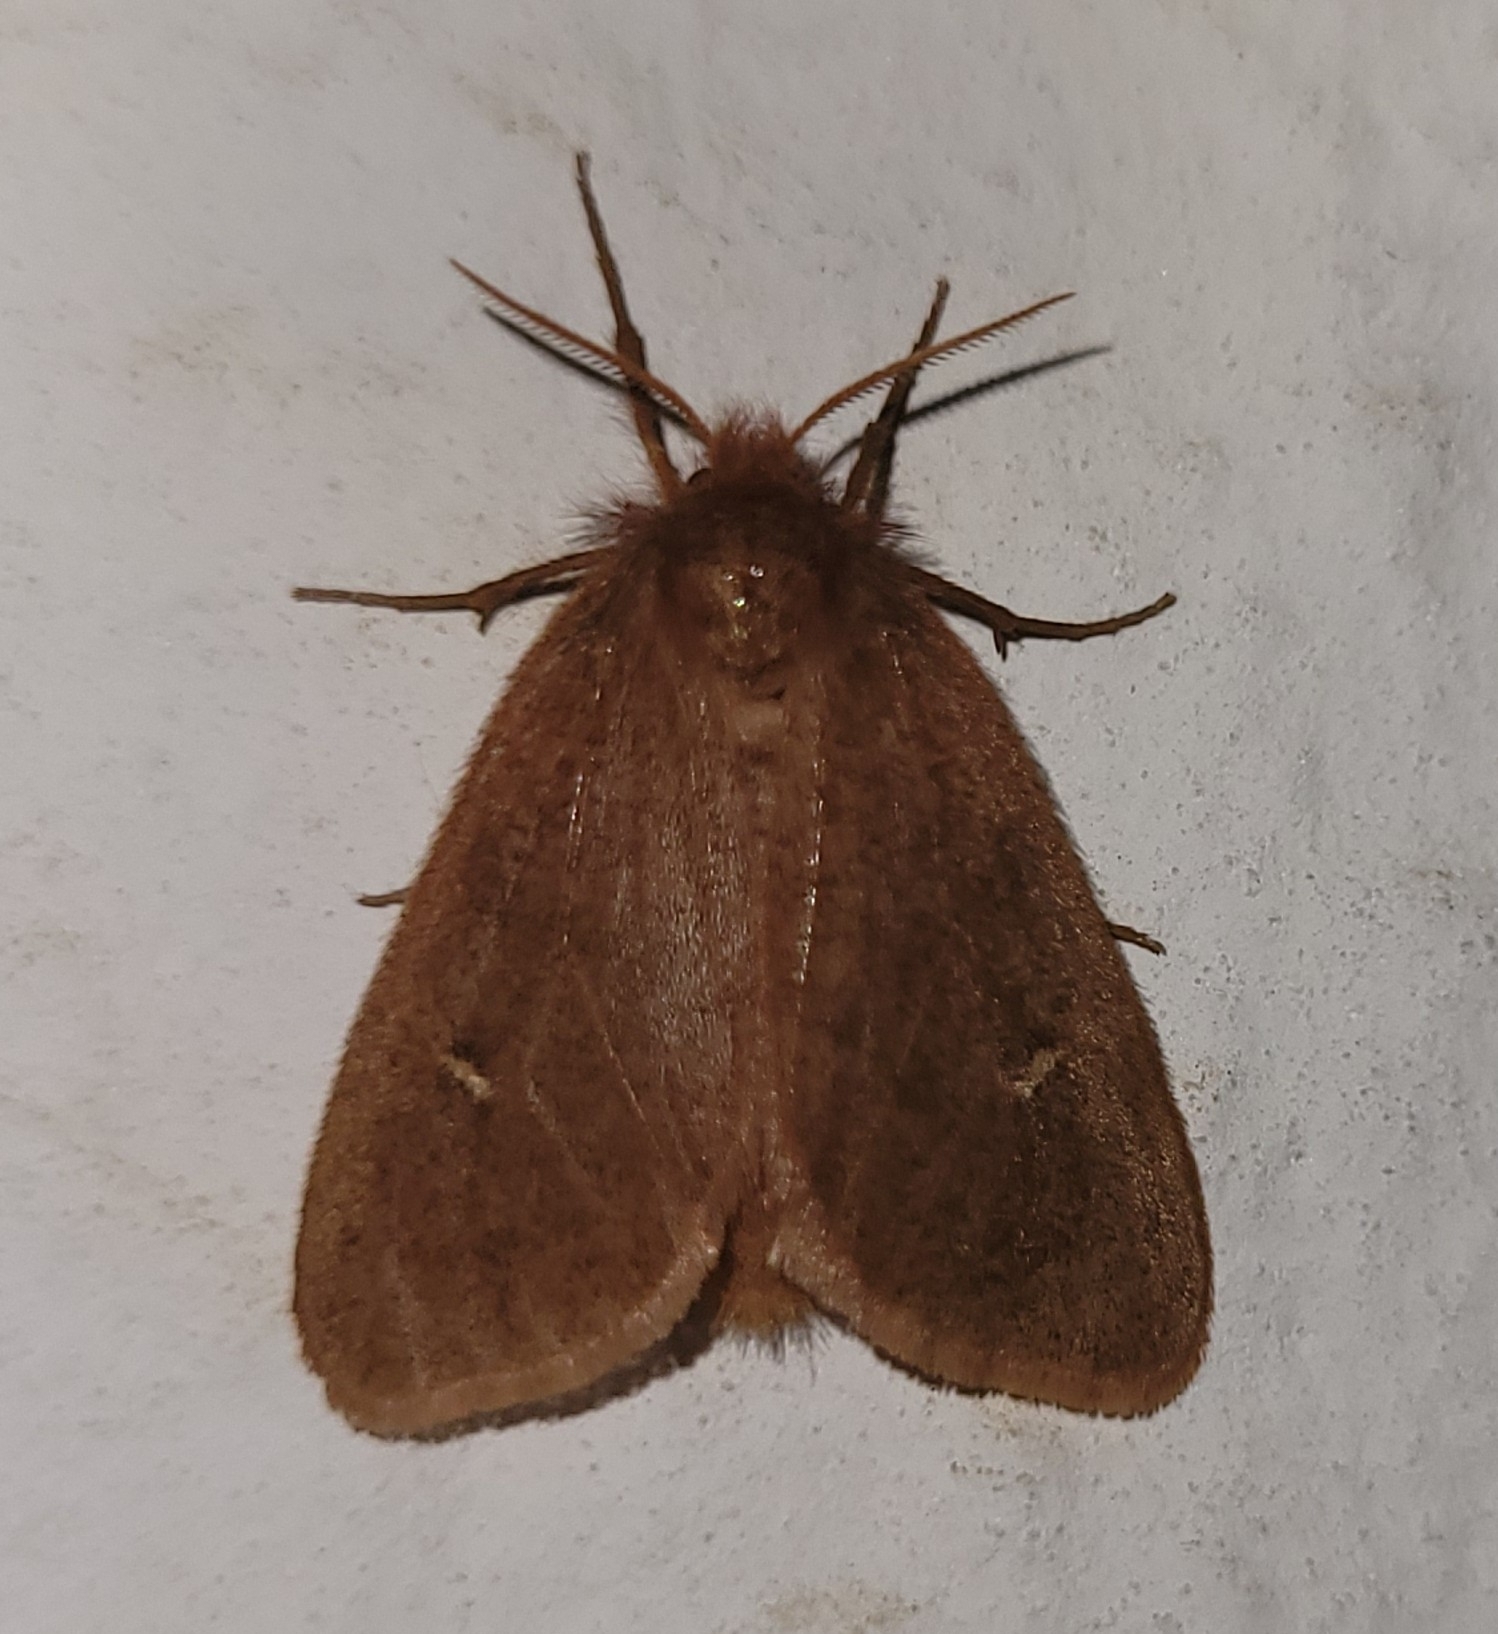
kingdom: Animalia
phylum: Arthropoda
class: Insecta
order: Lepidoptera
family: Erebidae
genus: Ocneria
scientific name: Ocneria rubea
